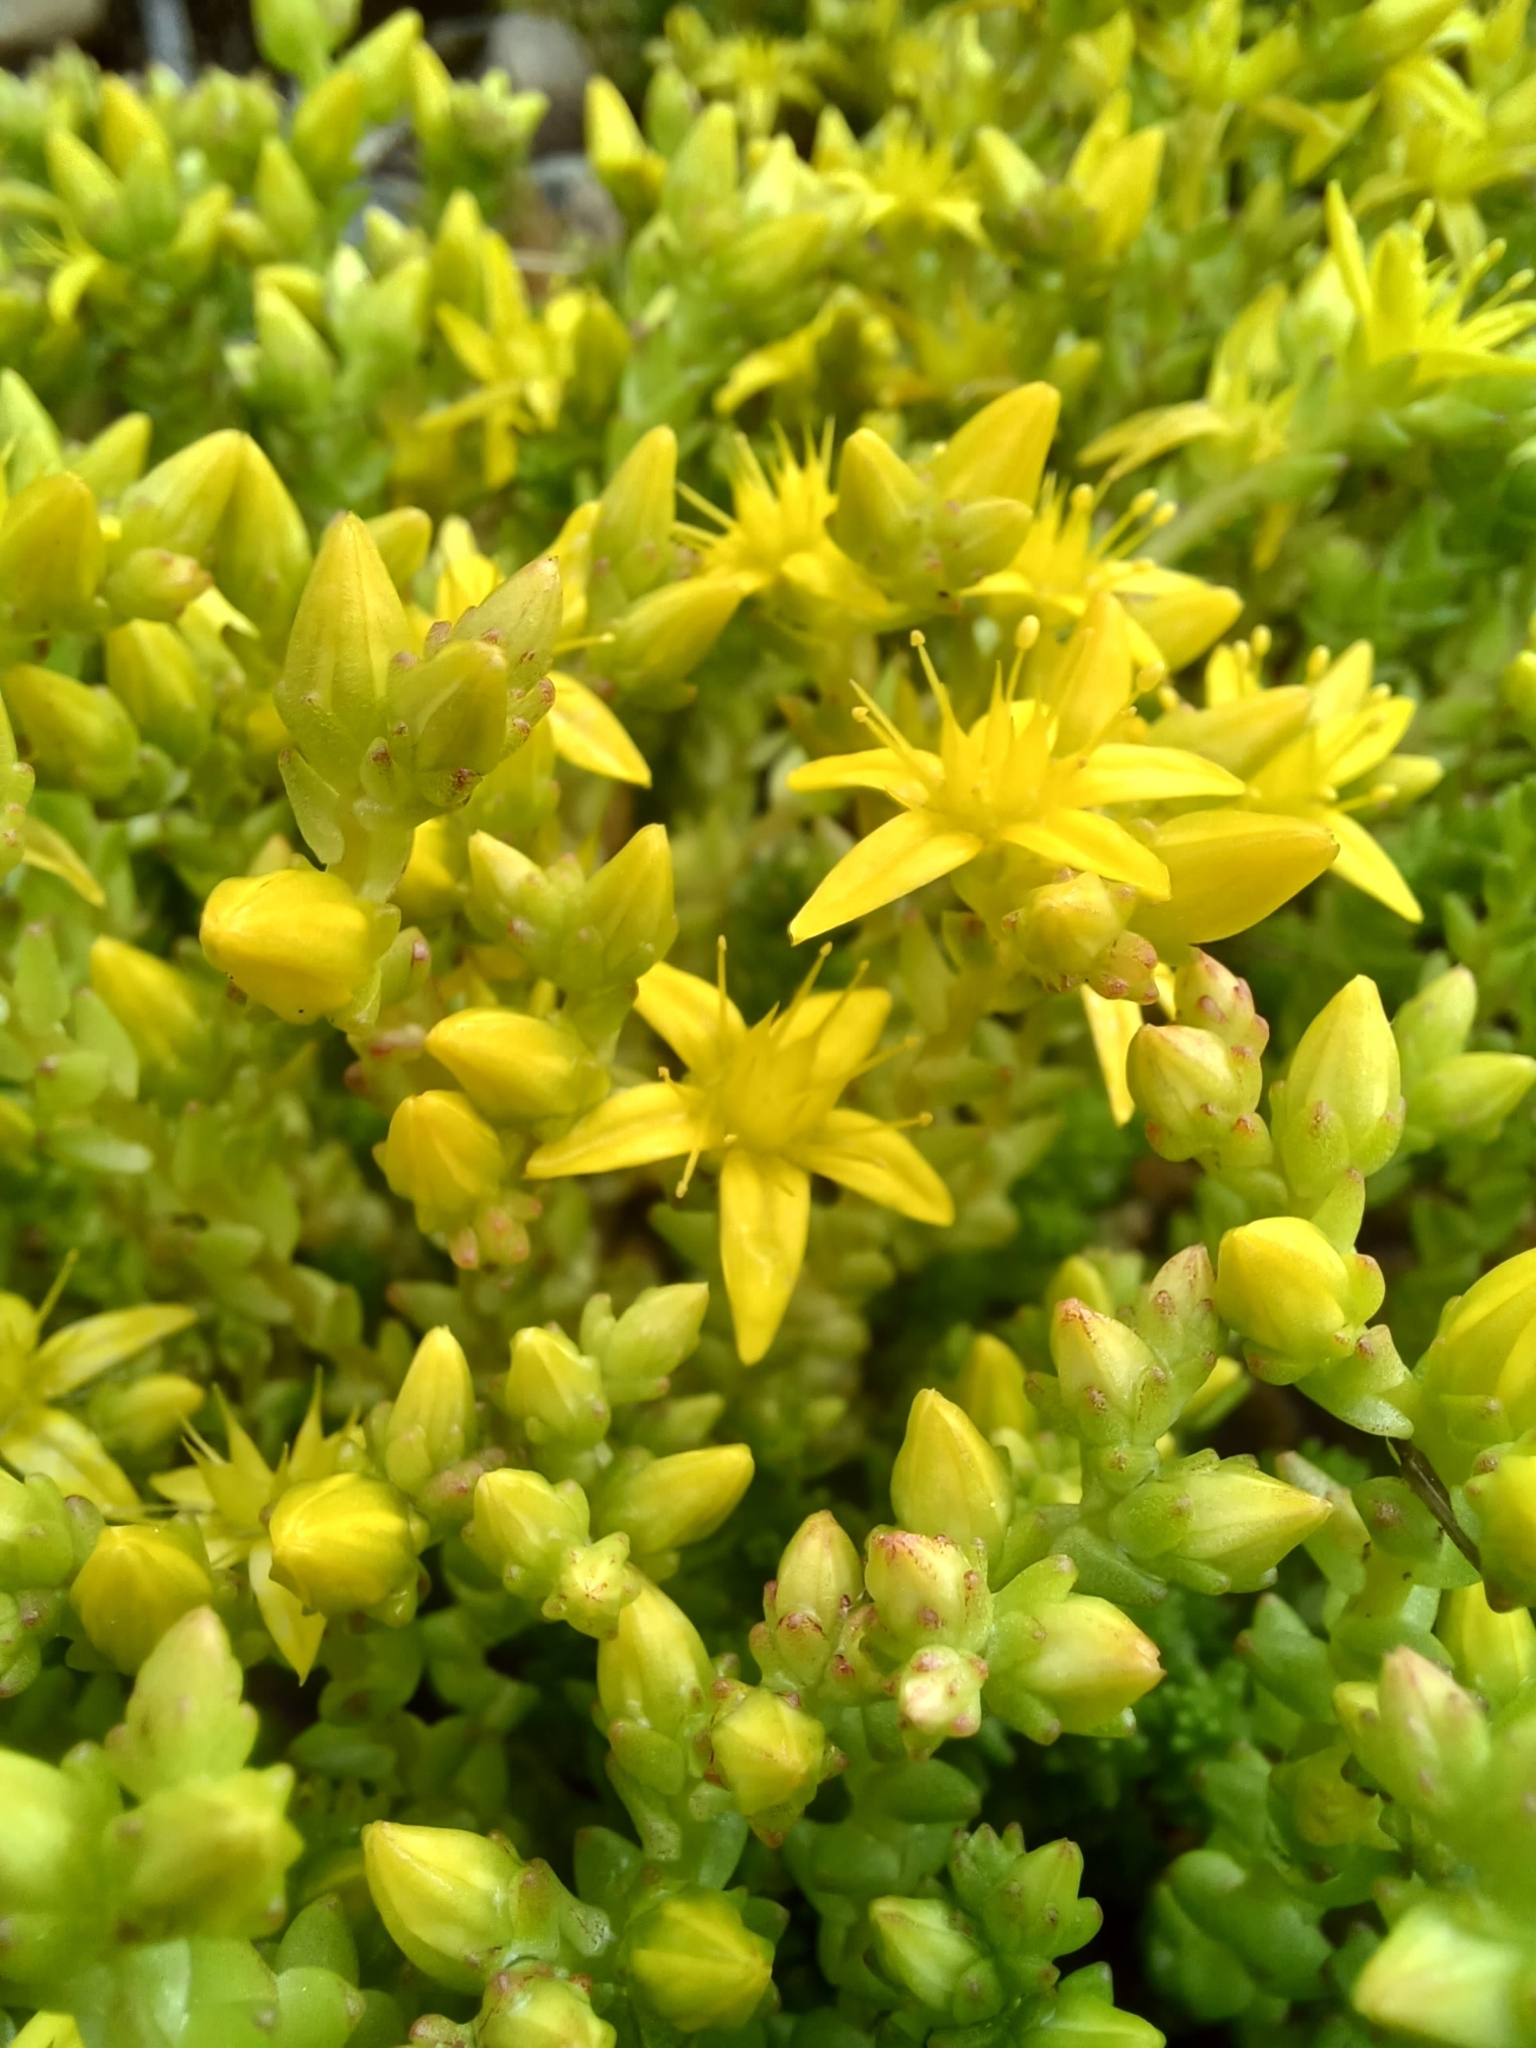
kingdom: Plantae
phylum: Tracheophyta
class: Magnoliopsida
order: Saxifragales
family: Crassulaceae
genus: Sedum
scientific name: Sedum acre
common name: Biting stonecrop
